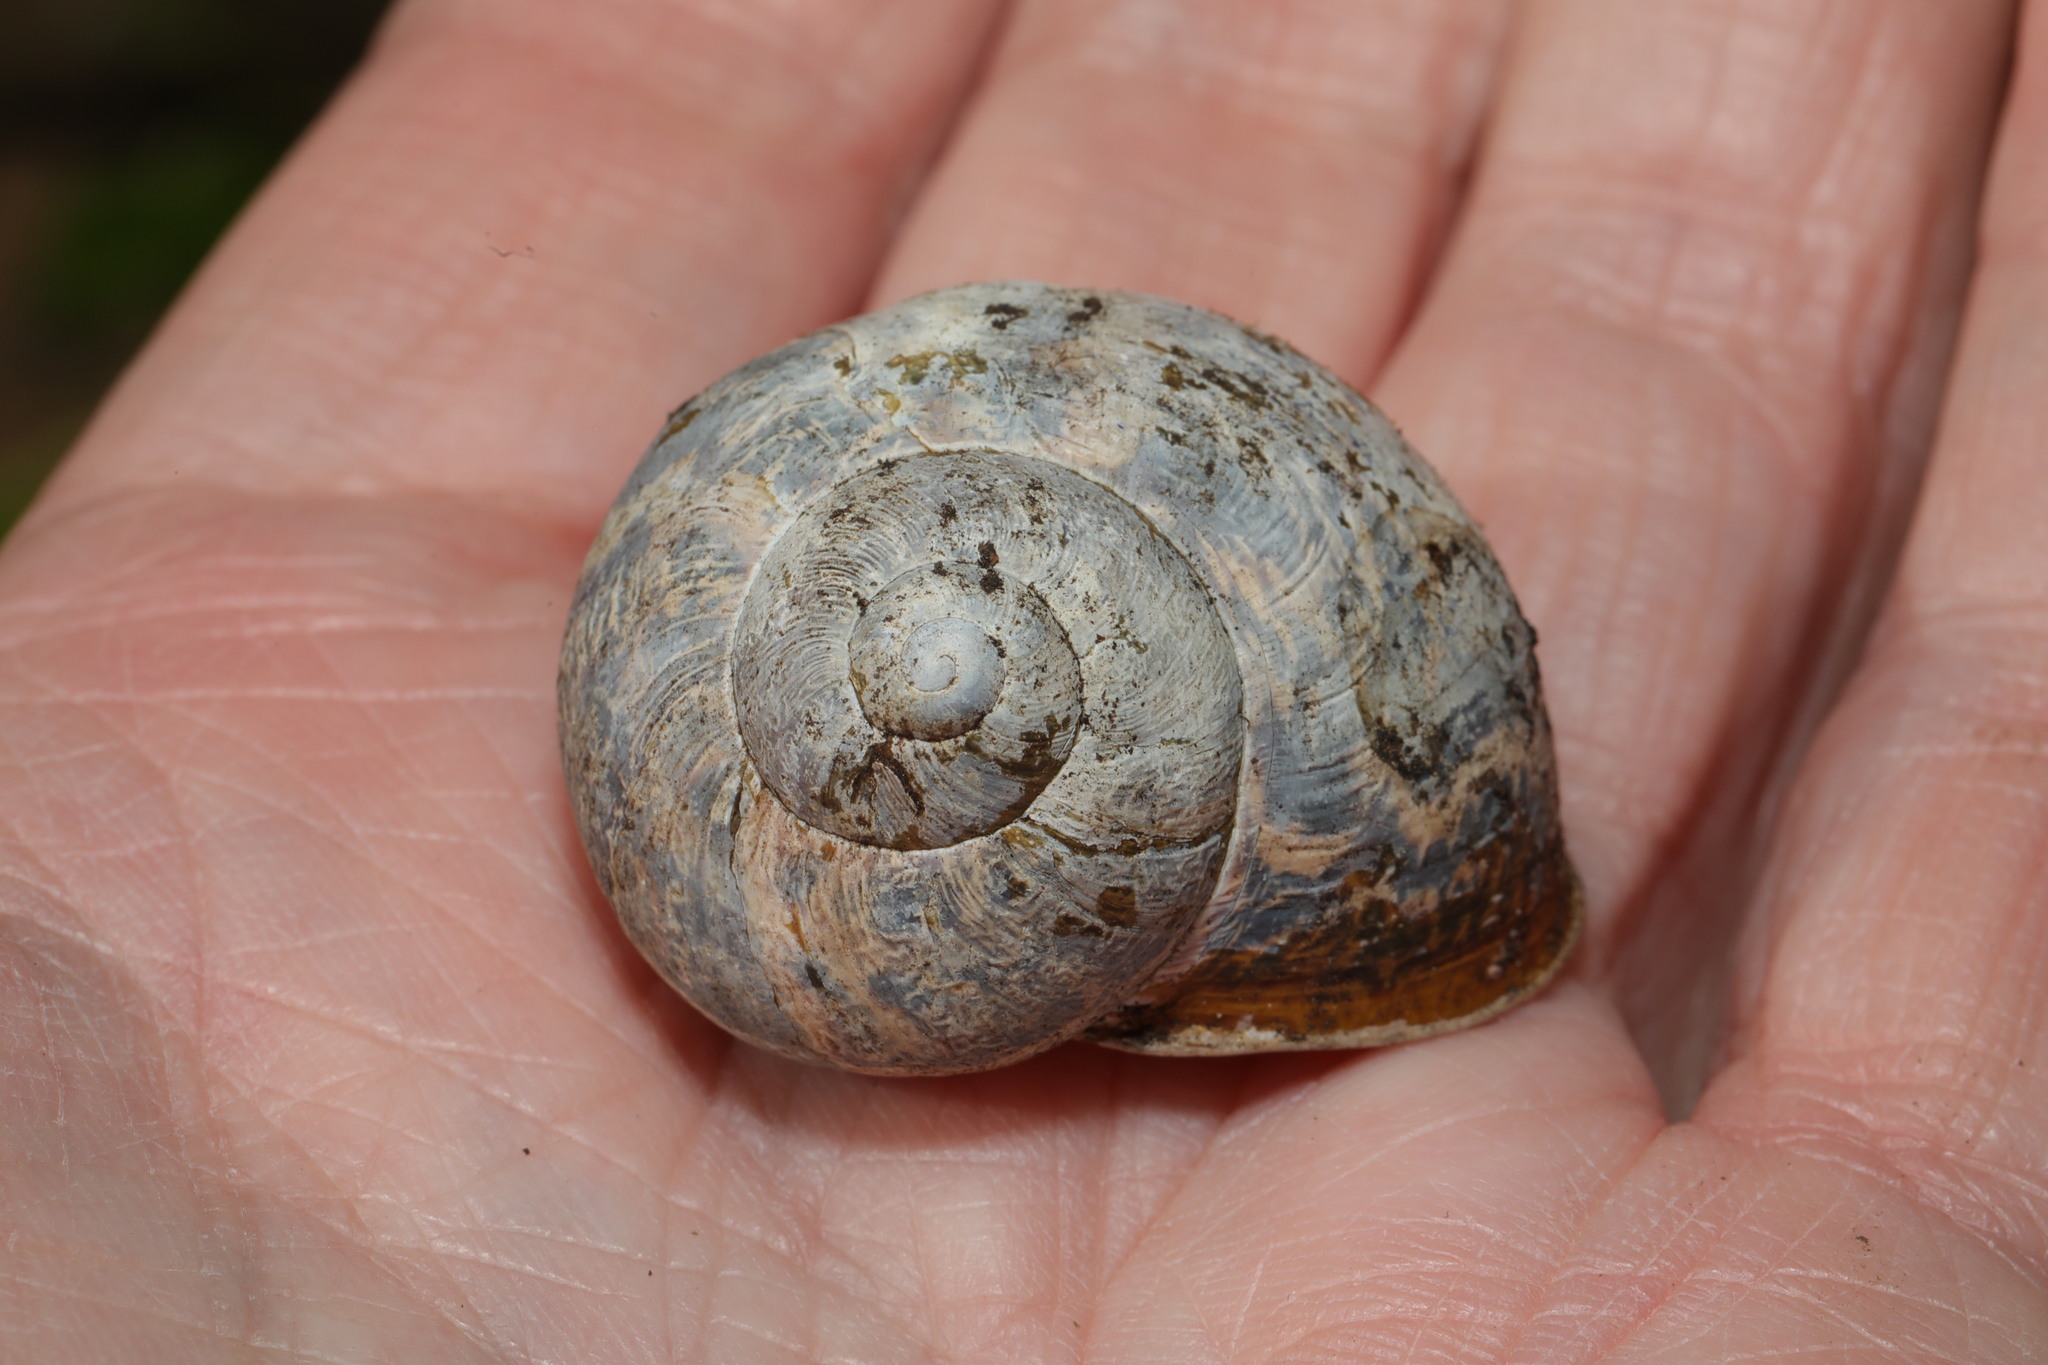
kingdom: Animalia
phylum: Mollusca
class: Gastropoda
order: Stylommatophora
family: Helicidae
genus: Cornu
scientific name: Cornu aspersum
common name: Brown garden snail
